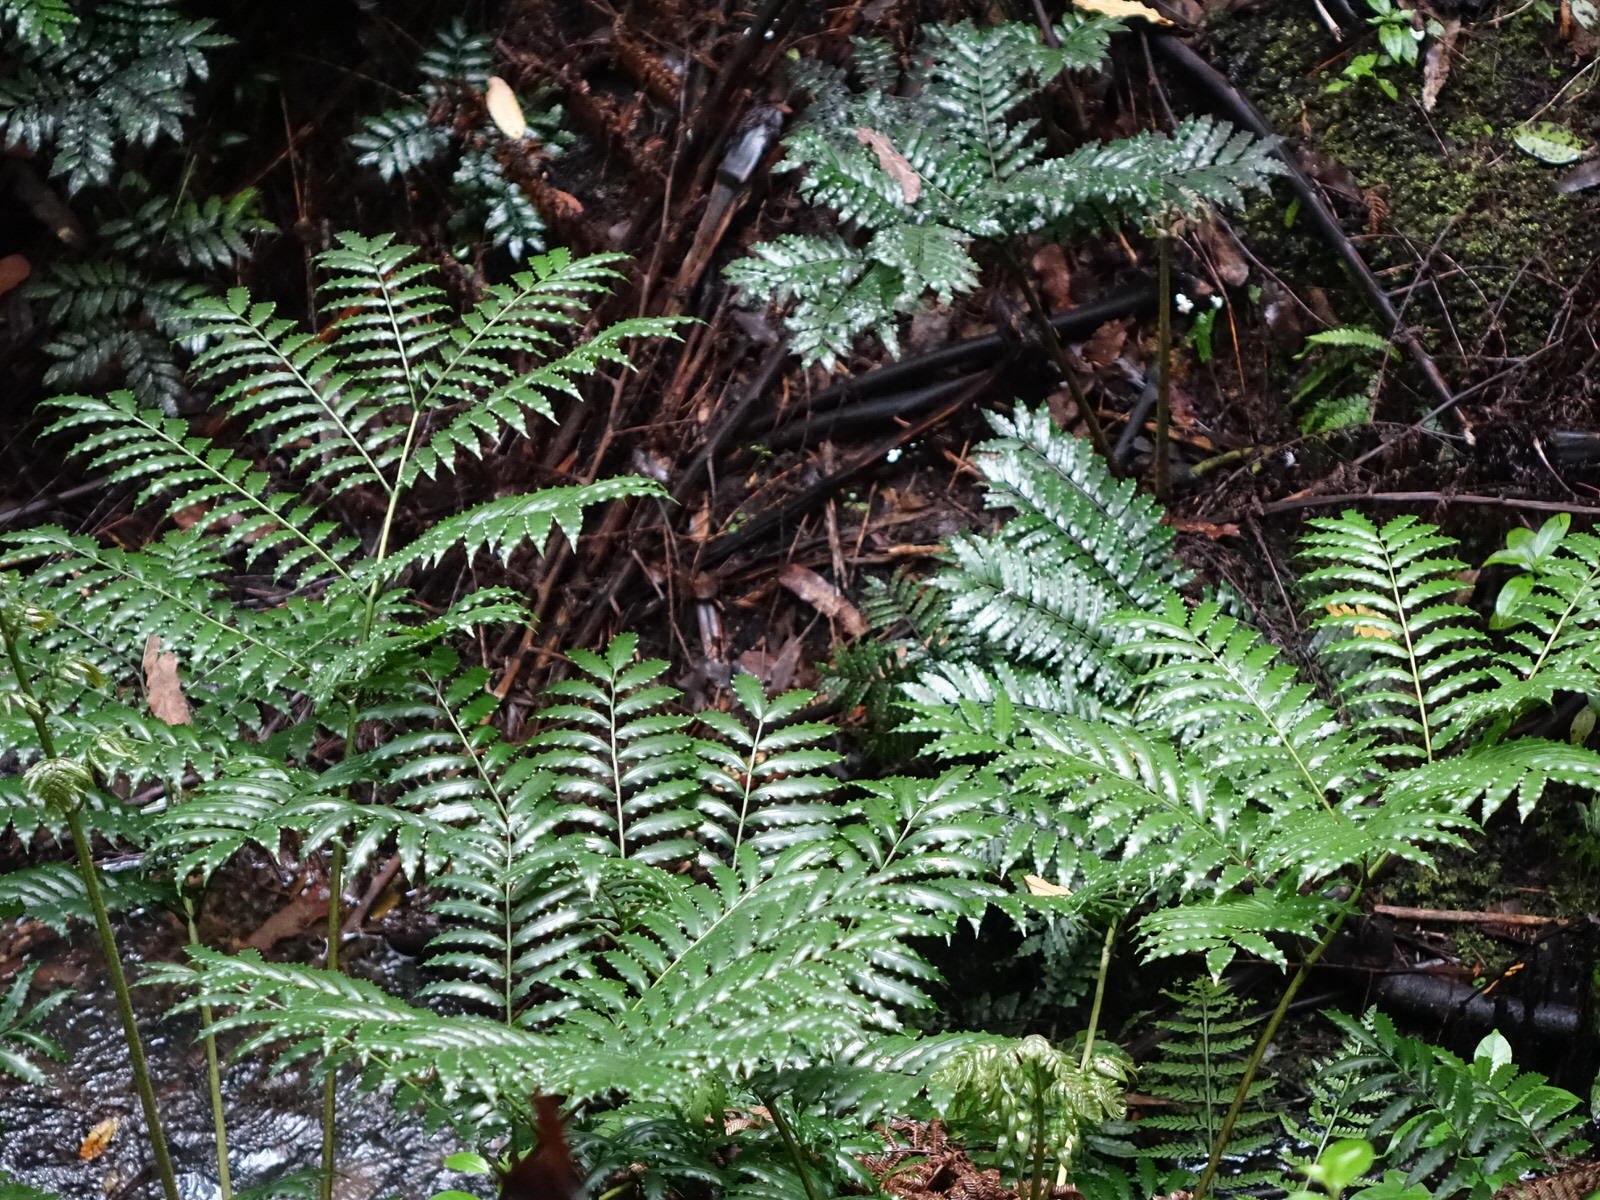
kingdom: Plantae
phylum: Tracheophyta
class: Polypodiopsida
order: Marattiales
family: Marattiaceae
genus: Ptisana
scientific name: Ptisana salicina
